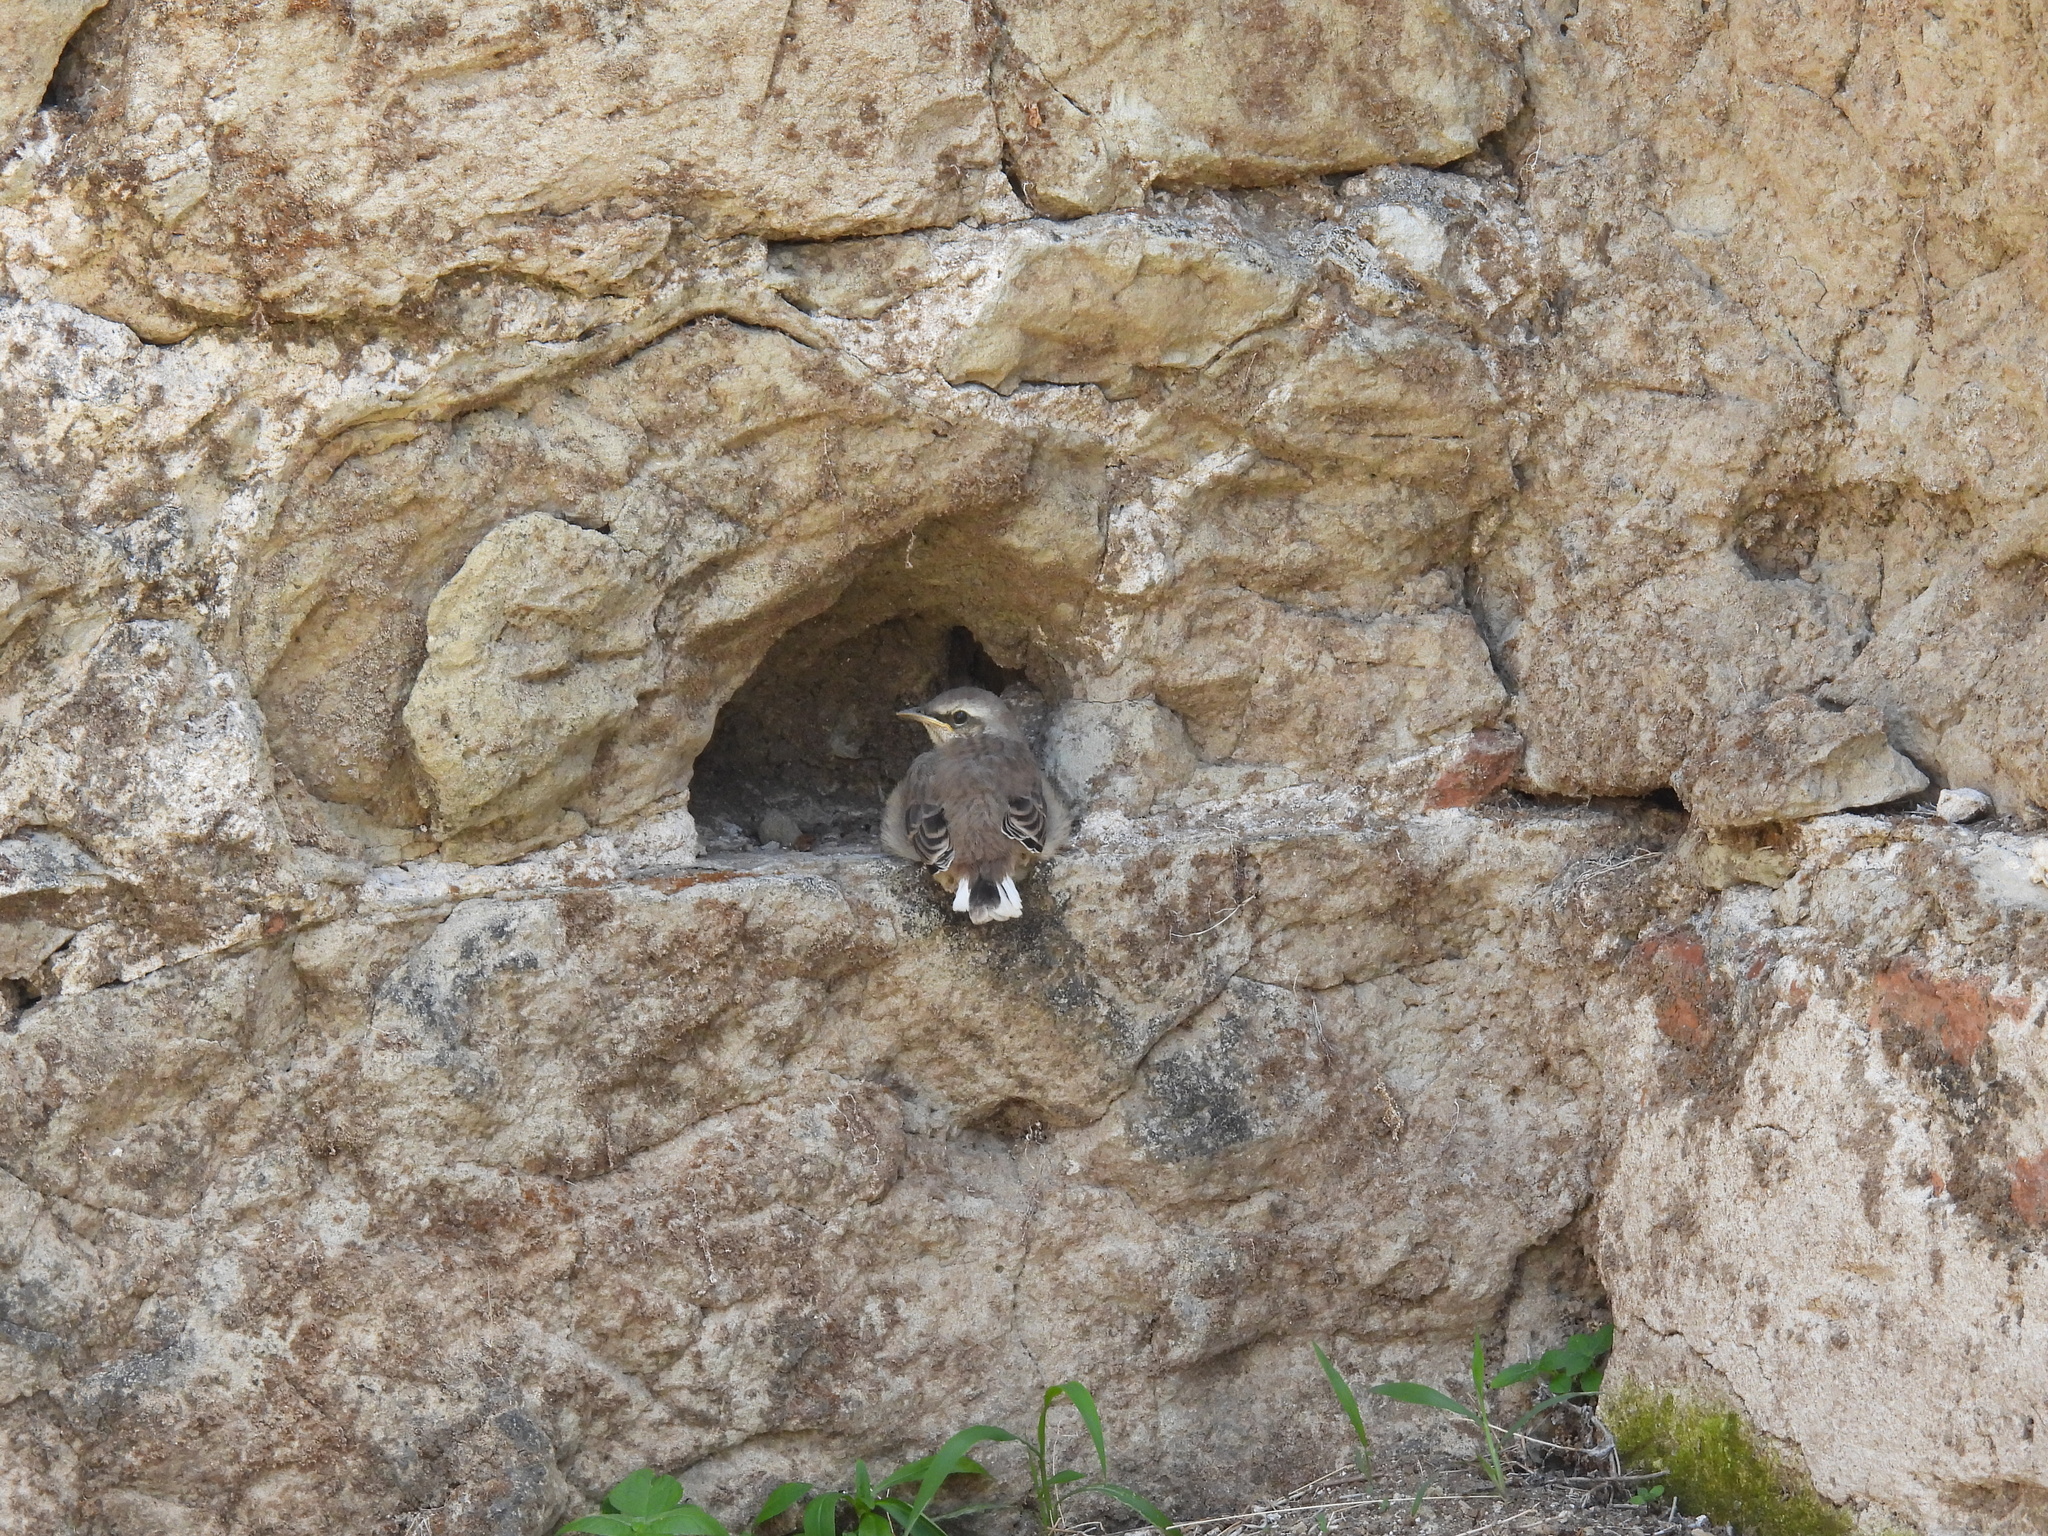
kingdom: Animalia
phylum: Chordata
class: Aves
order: Passeriformes
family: Mimidae
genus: Mimus
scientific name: Mimus gilvus
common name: Tropical mockingbird
